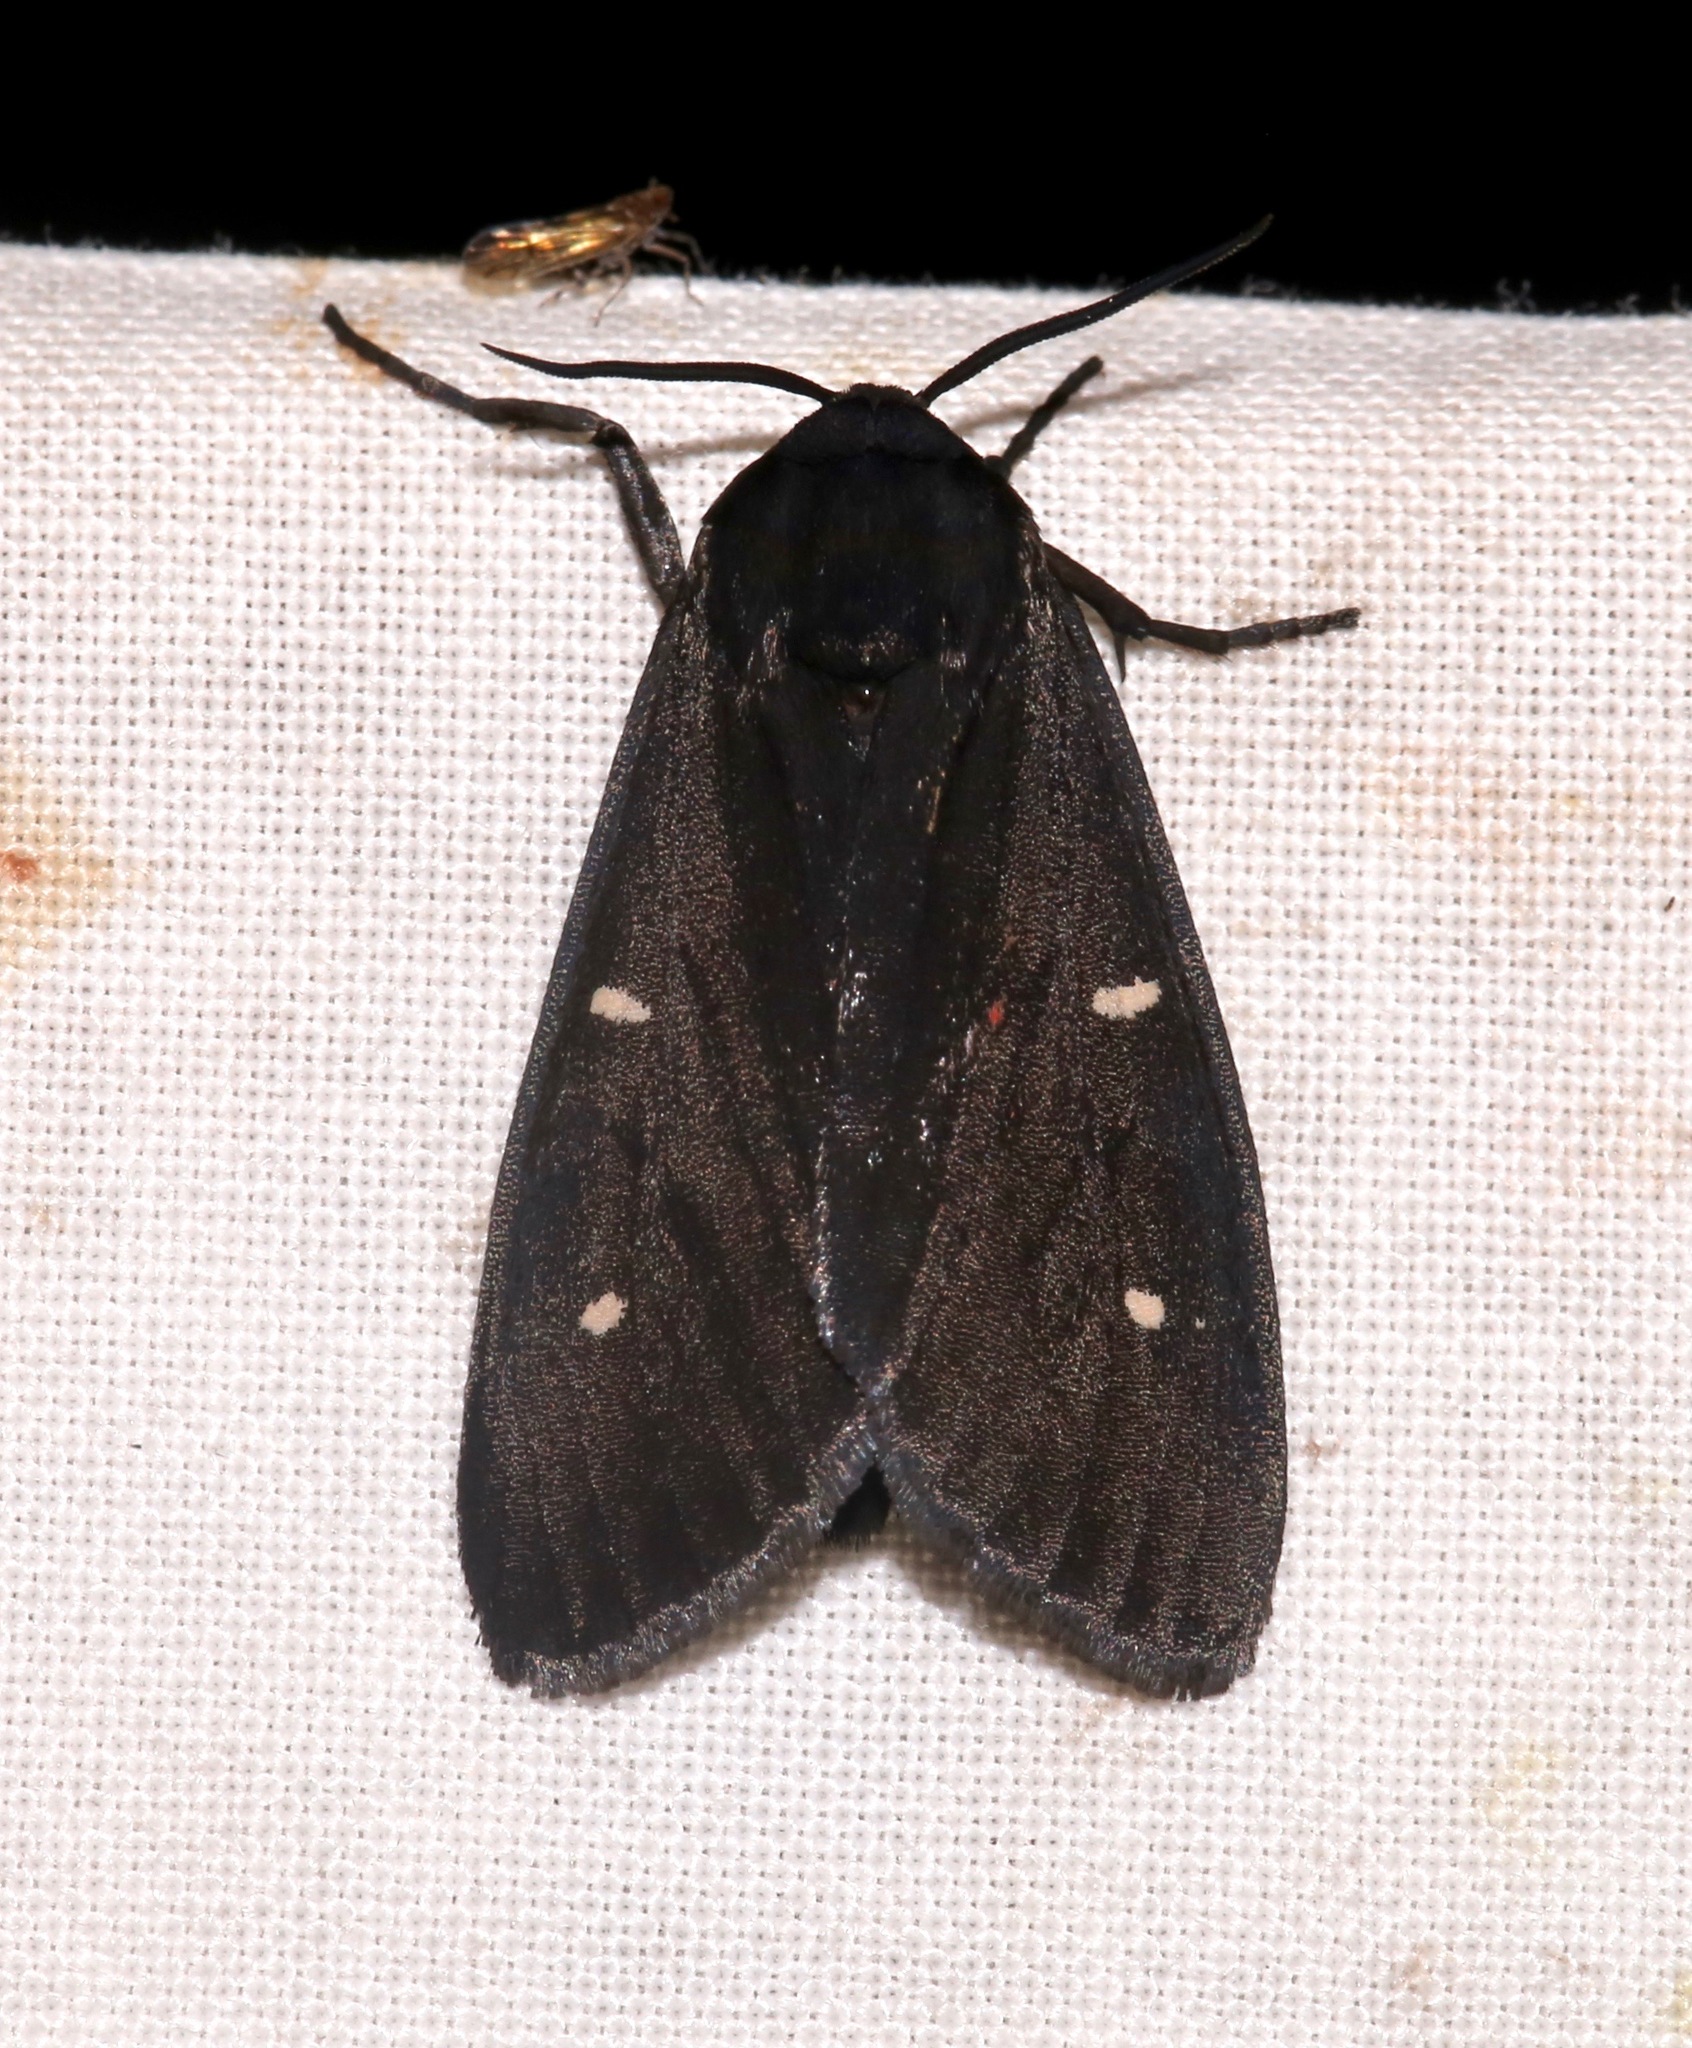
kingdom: Animalia
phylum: Arthropoda
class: Insecta
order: Lepidoptera
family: Erebidae
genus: Apantesis
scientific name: Apantesis
